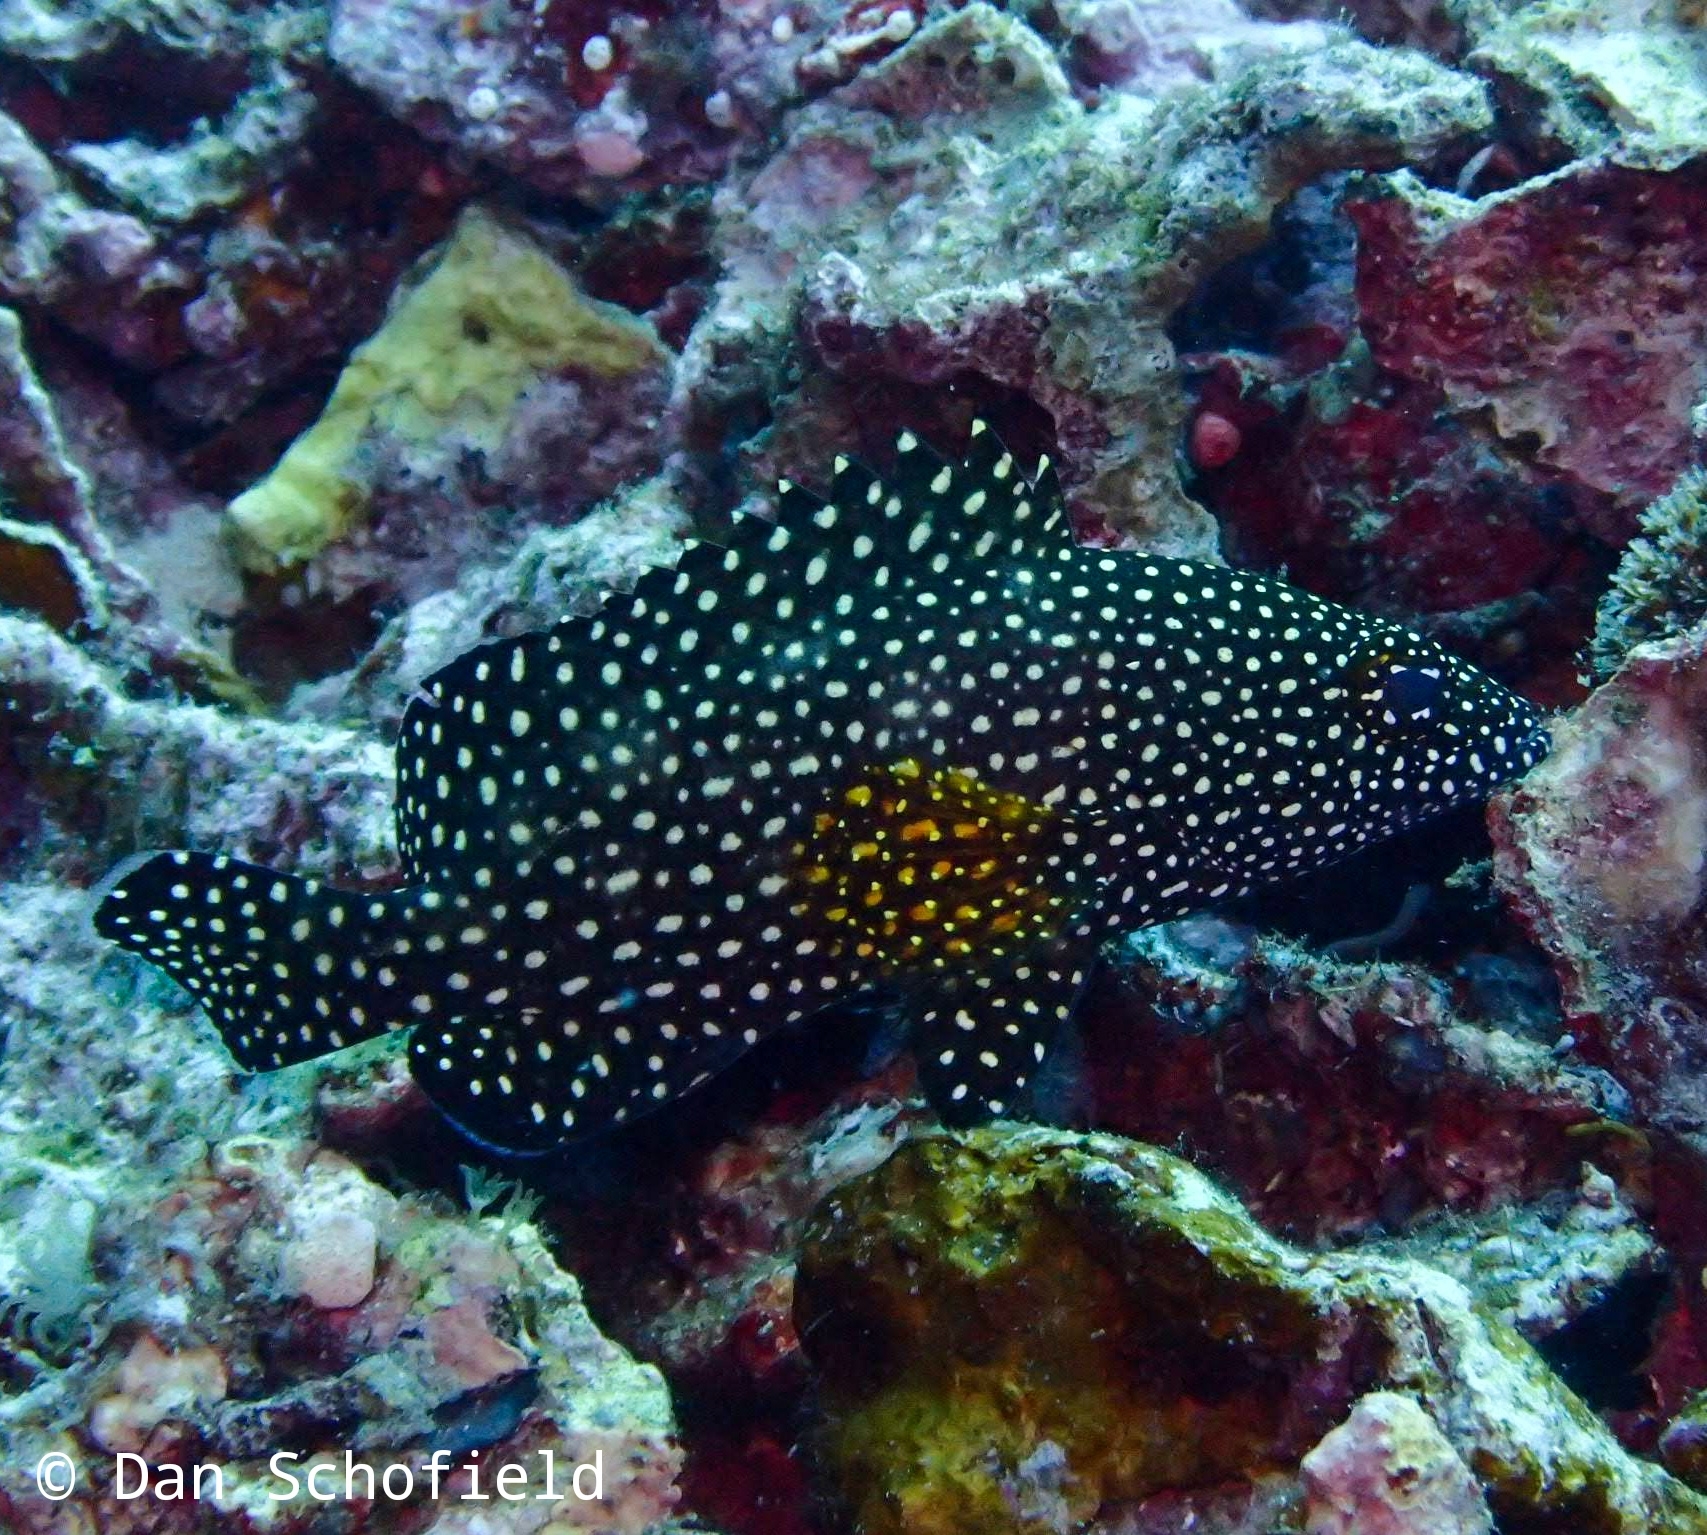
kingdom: Animalia
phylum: Chordata
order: Perciformes
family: Serranidae
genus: Epinephelus
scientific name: Epinephelus ongus
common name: White-streaked grouper
